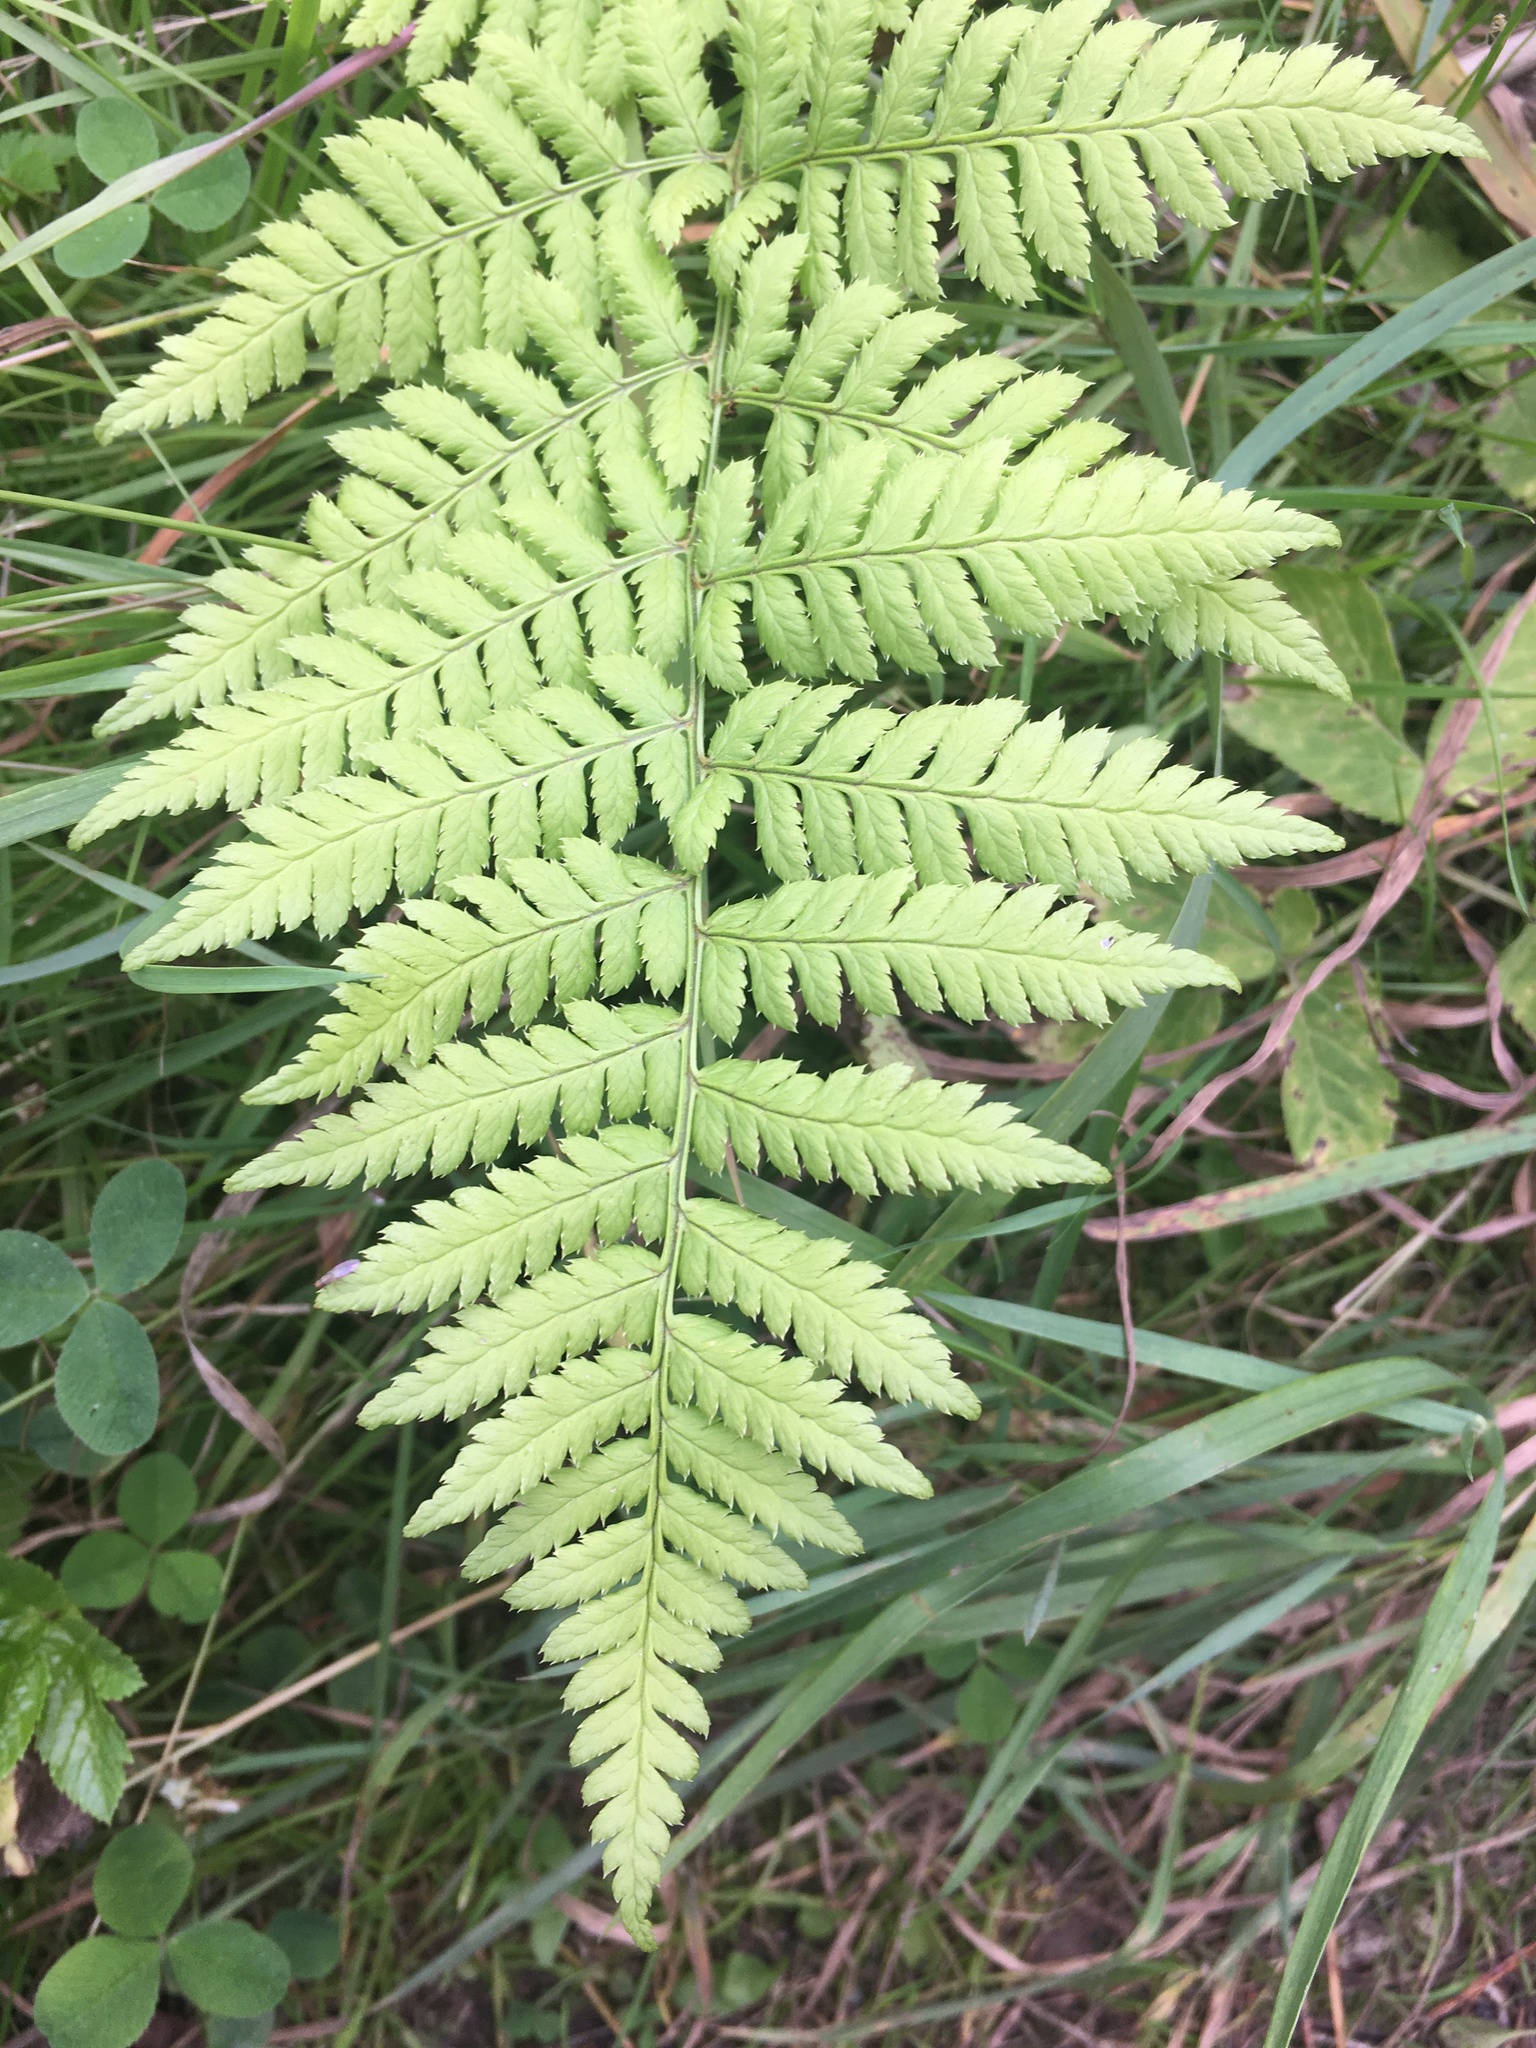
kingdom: Plantae
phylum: Tracheophyta
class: Polypodiopsida
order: Polypodiales
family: Dryopteridaceae
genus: Dryopteris
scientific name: Dryopteris carthusiana
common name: Narrow buckler-fern
